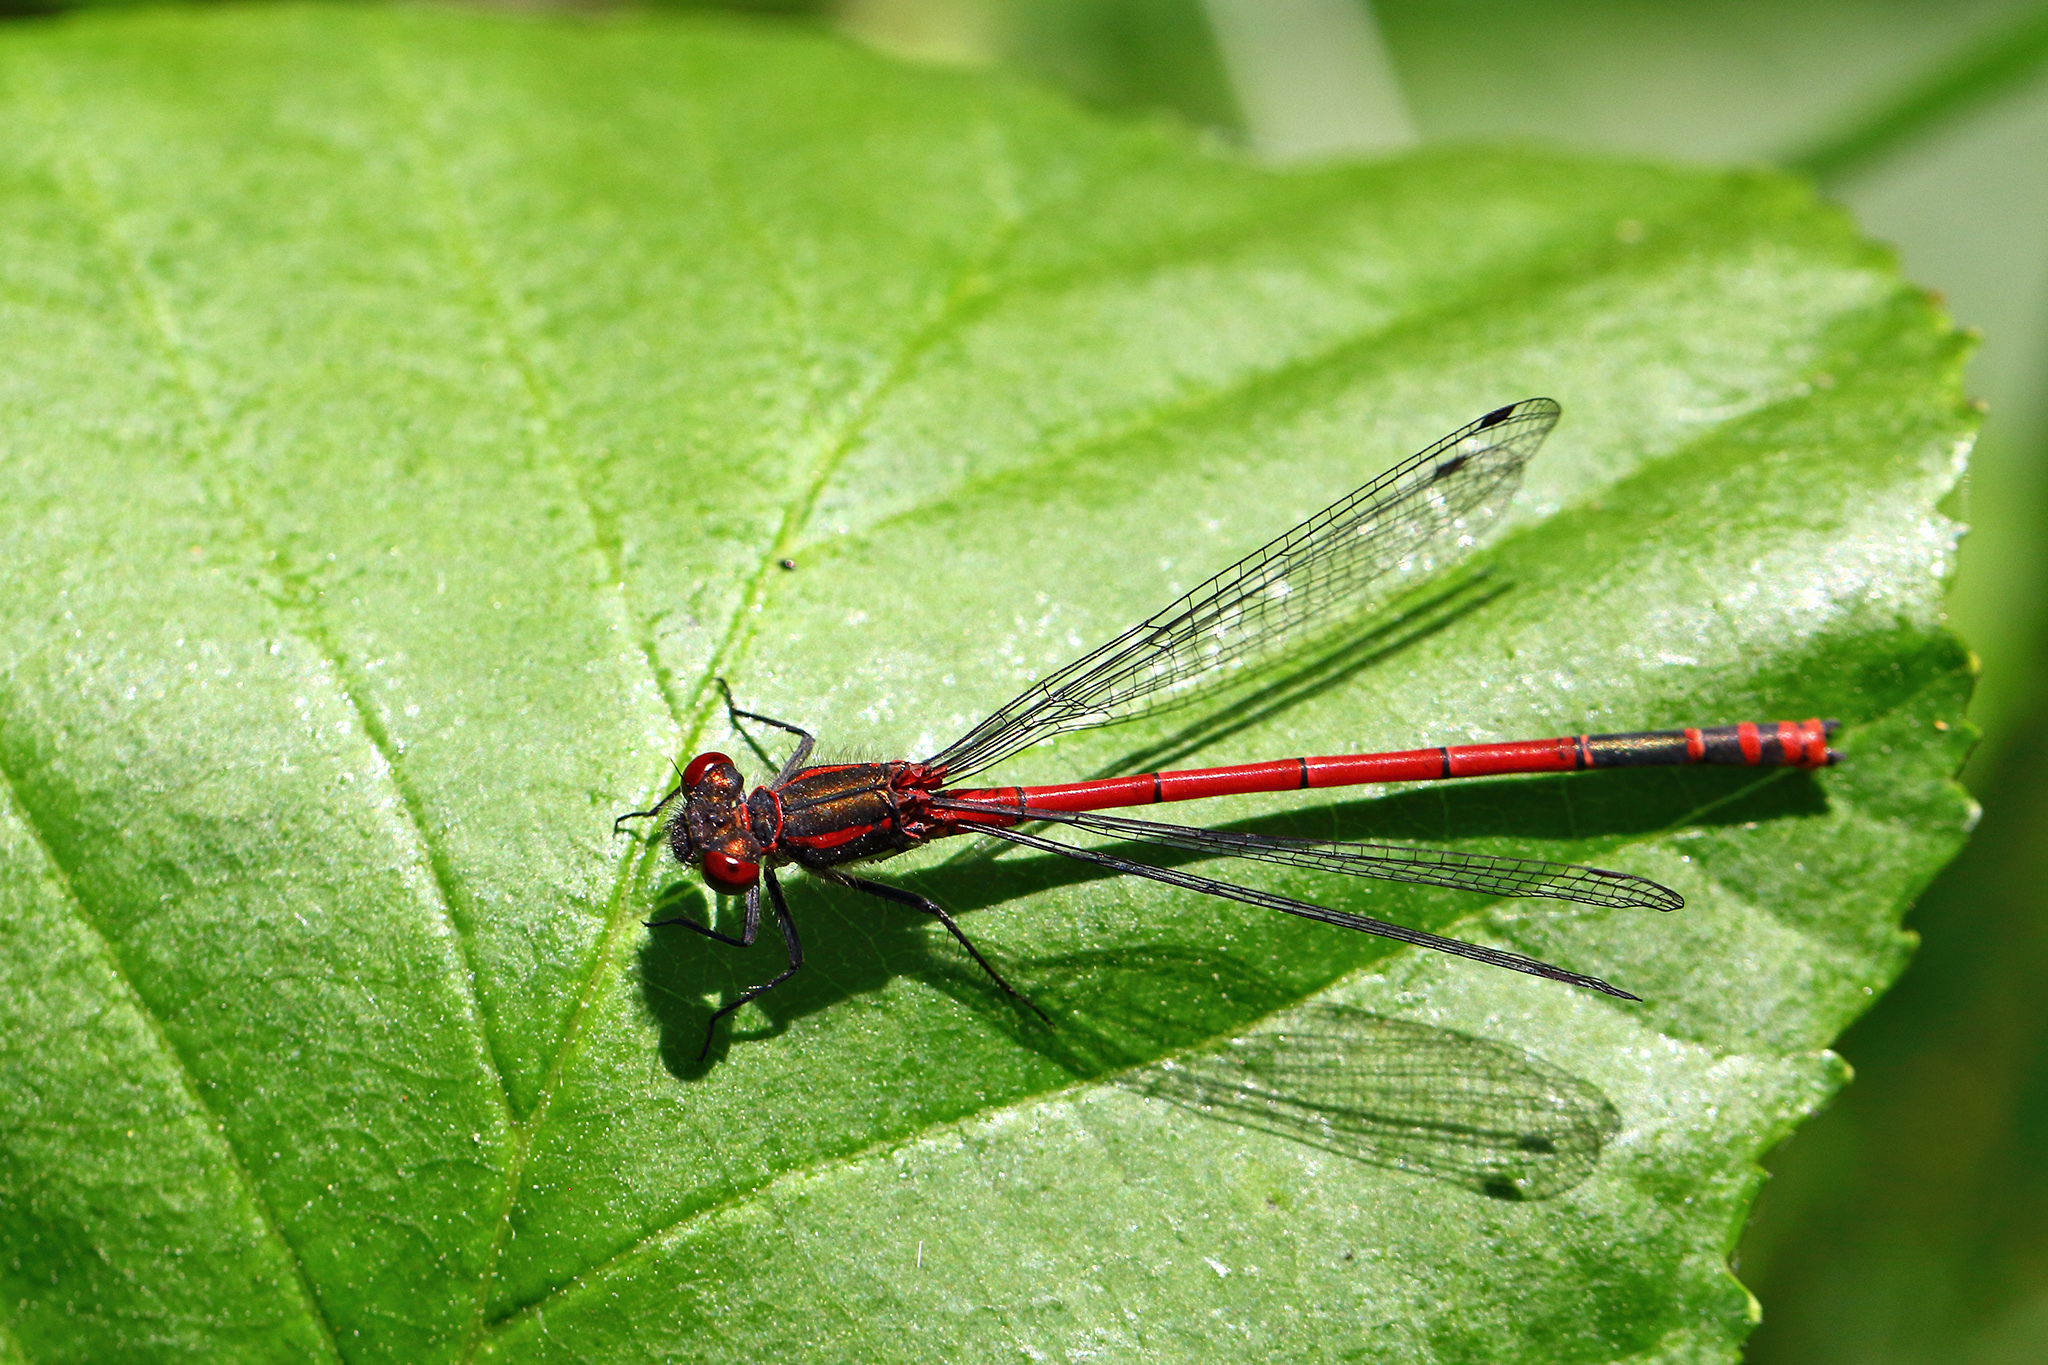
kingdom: Animalia
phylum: Arthropoda
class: Insecta
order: Odonata
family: Coenagrionidae
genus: Pyrrhosoma
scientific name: Pyrrhosoma nymphula
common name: Large red damsel
